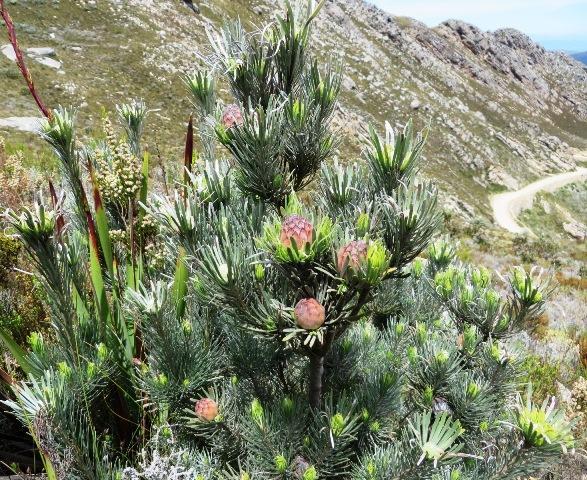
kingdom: Plantae
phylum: Tracheophyta
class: Magnoliopsida
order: Proteales
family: Proteaceae
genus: Leucadendron
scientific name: Leucadendron album
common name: Linear-leaf conebush
